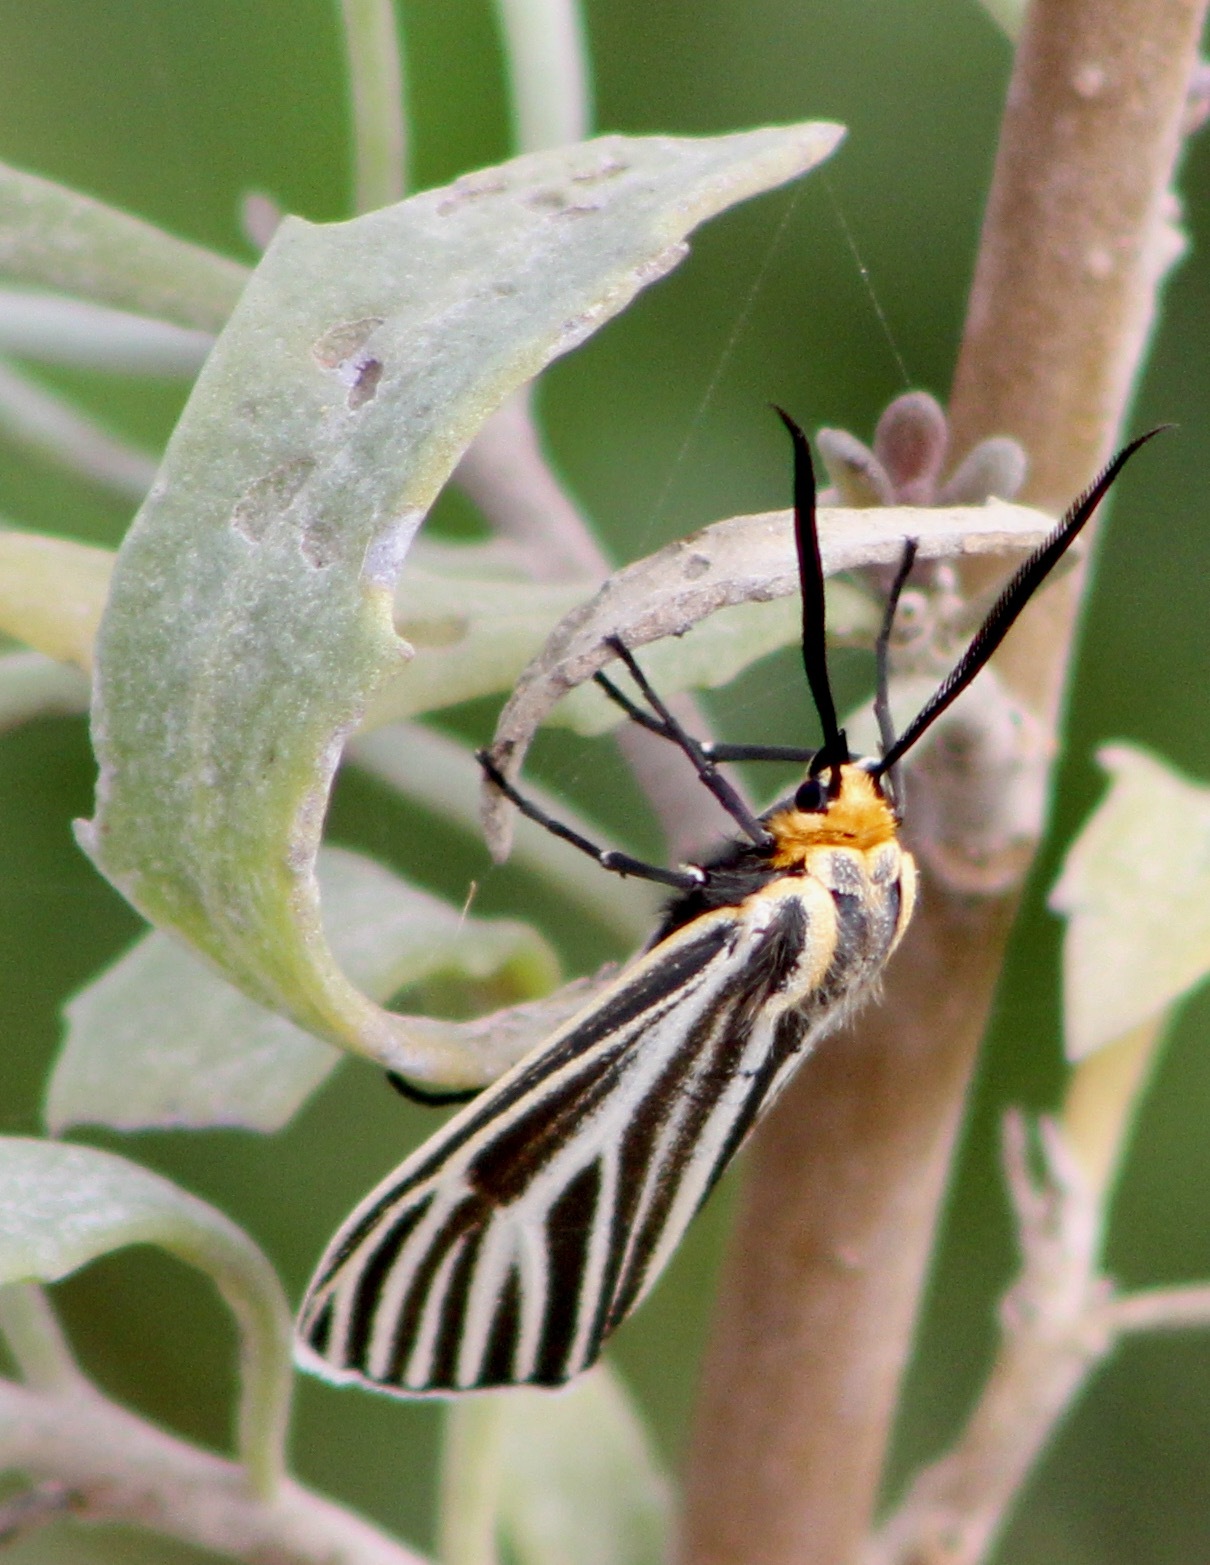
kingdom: Animalia
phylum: Arthropoda
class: Insecta
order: Lepidoptera
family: Erebidae
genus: Ctenucha
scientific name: Ctenucha vittigerum
